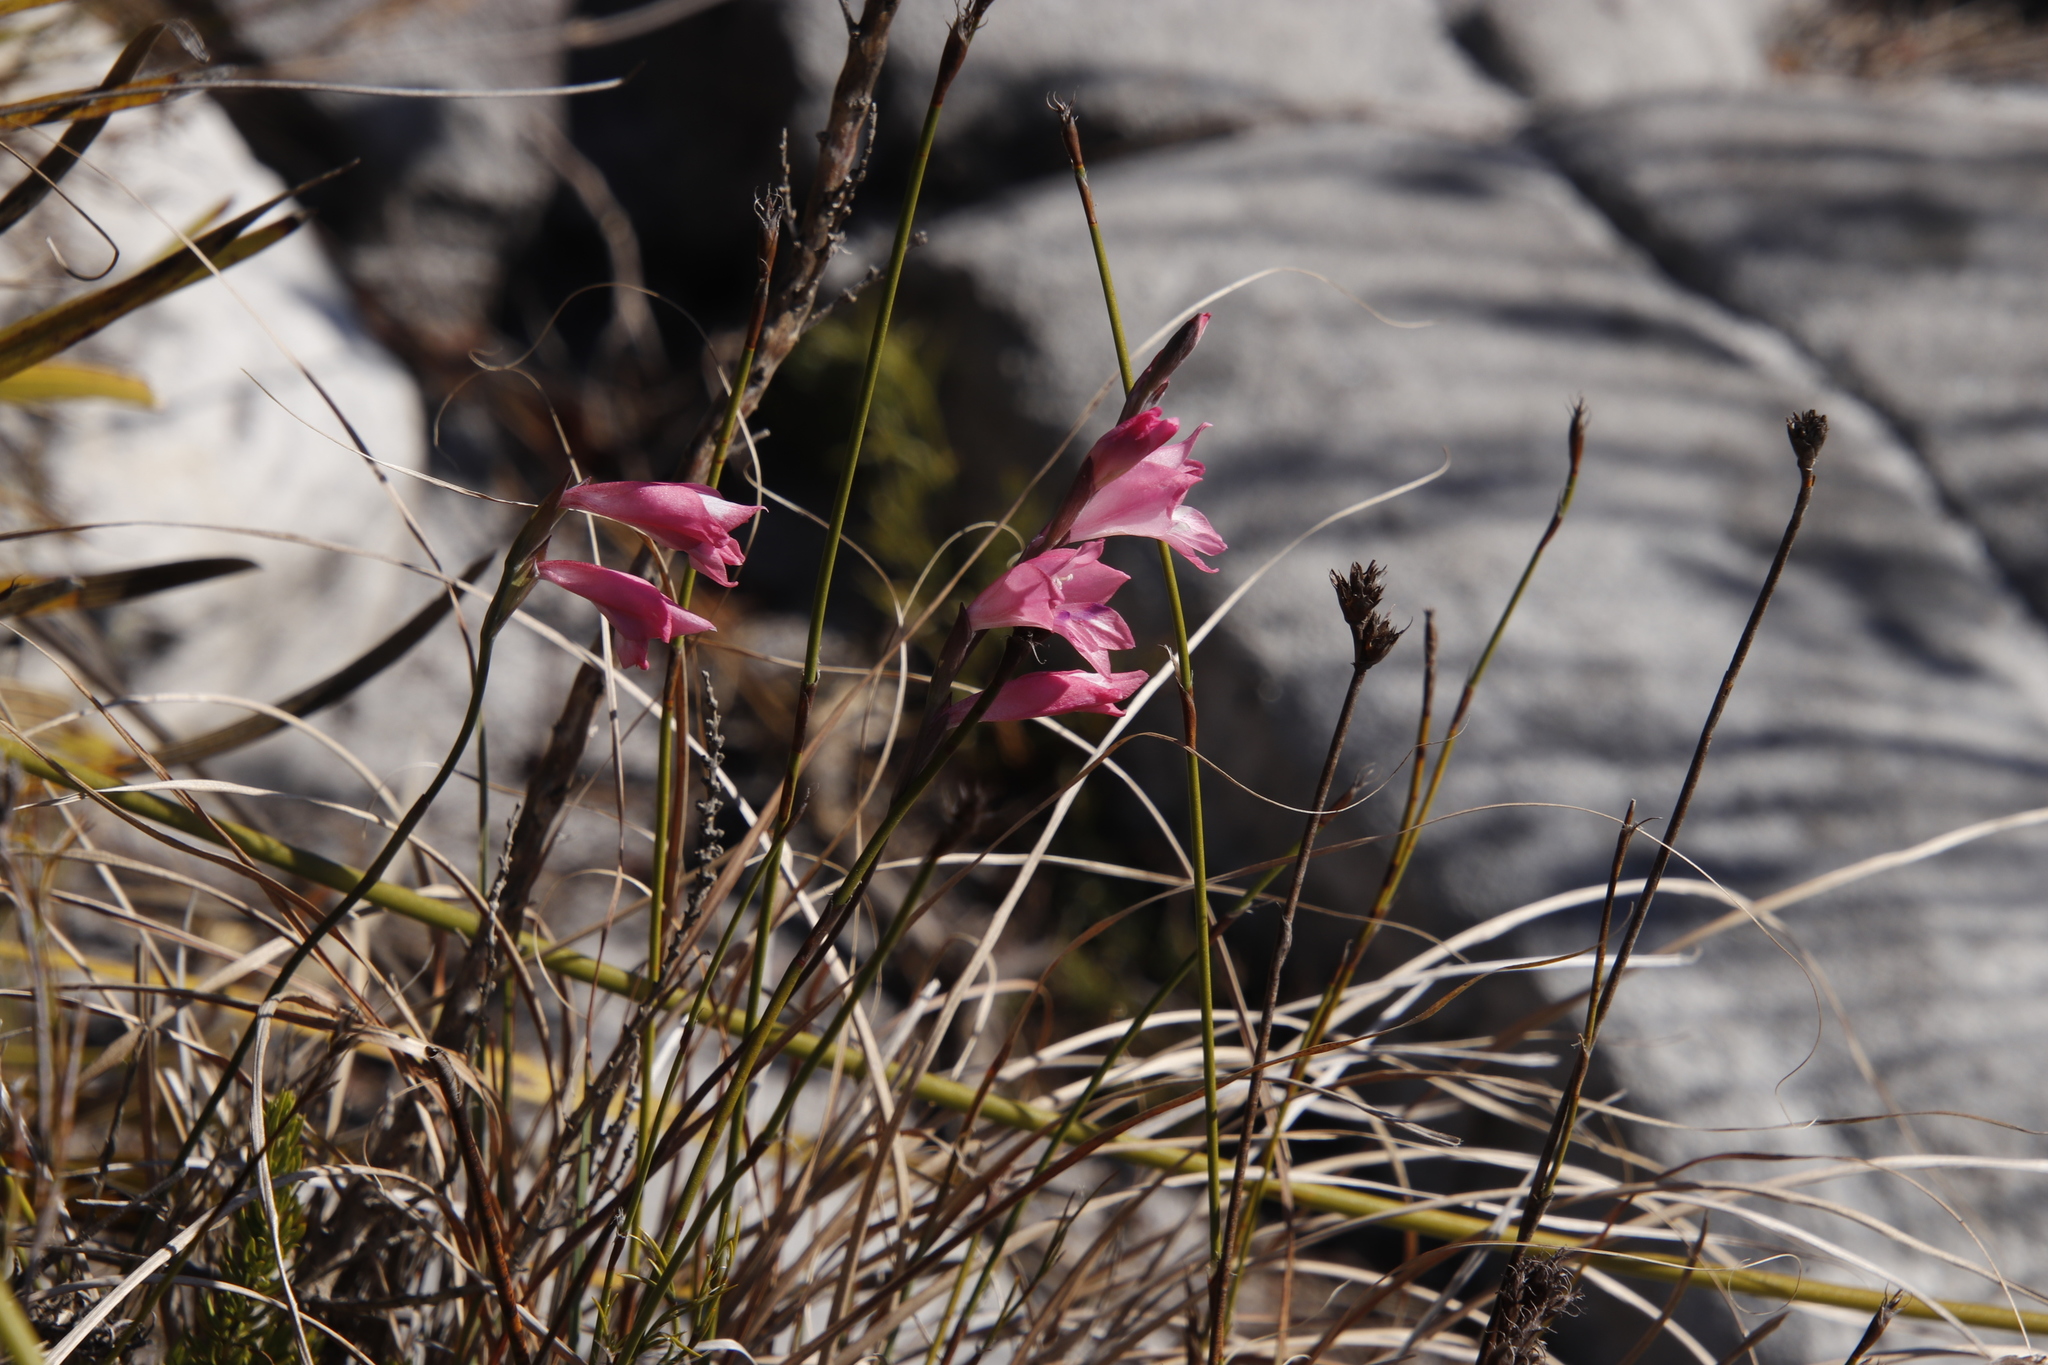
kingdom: Plantae
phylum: Tracheophyta
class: Liliopsida
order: Asparagales
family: Iridaceae
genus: Gladiolus
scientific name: Gladiolus brevifolius
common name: March pypie
